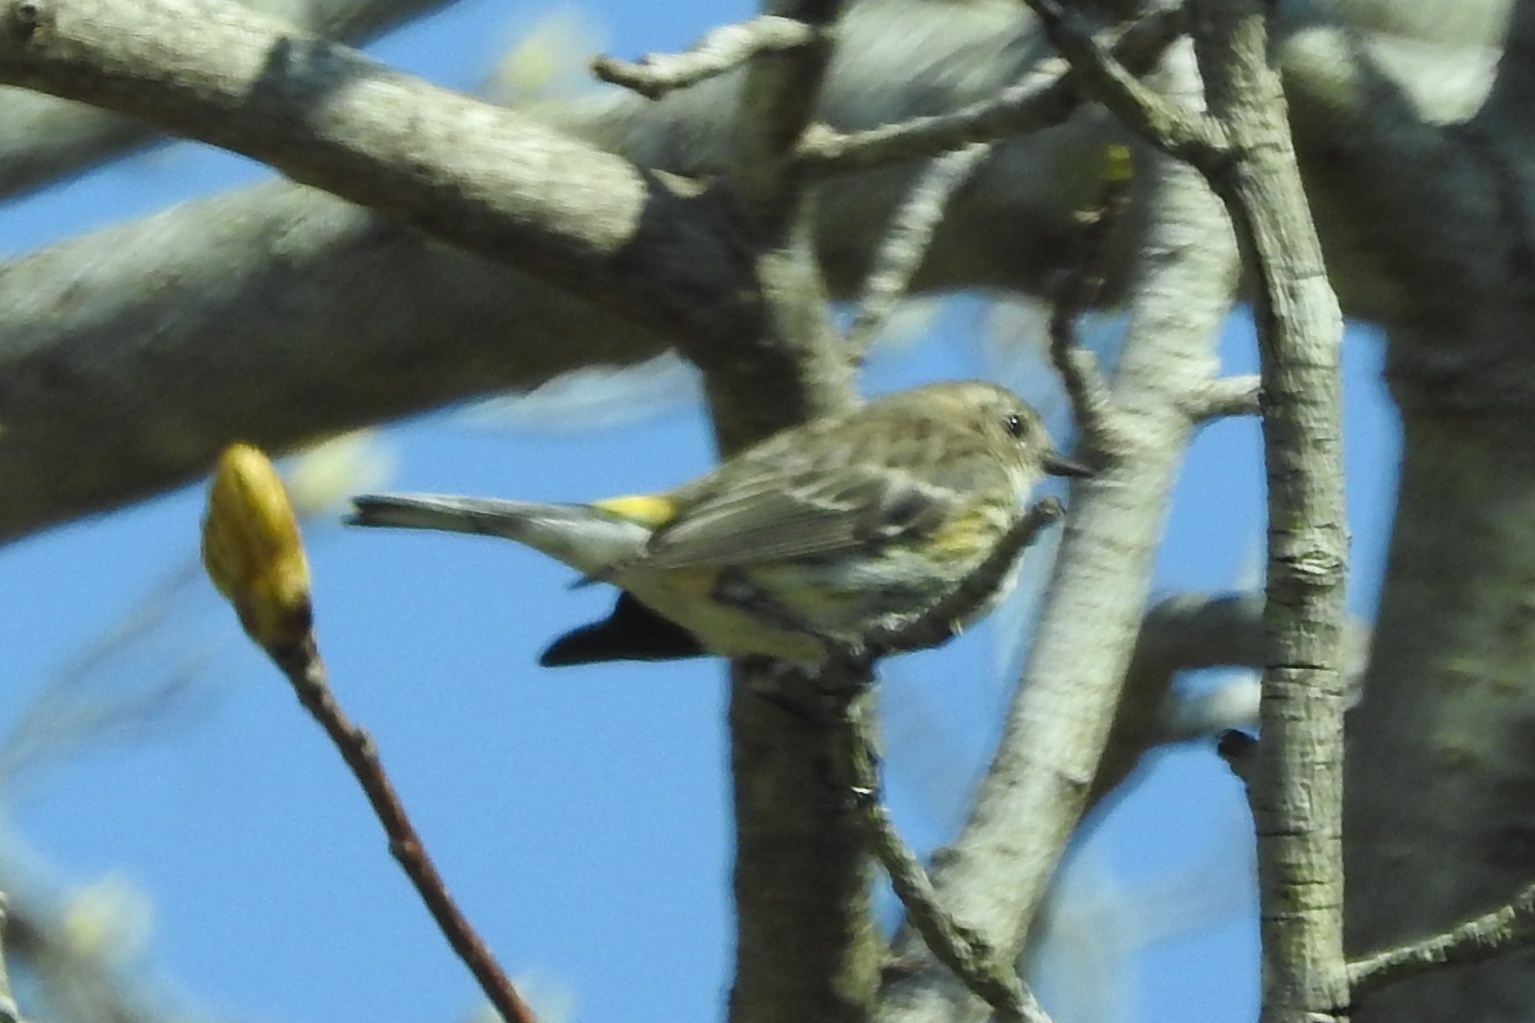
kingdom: Animalia
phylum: Chordata
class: Aves
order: Passeriformes
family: Parulidae
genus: Setophaga
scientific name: Setophaga coronata
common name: Myrtle warbler
